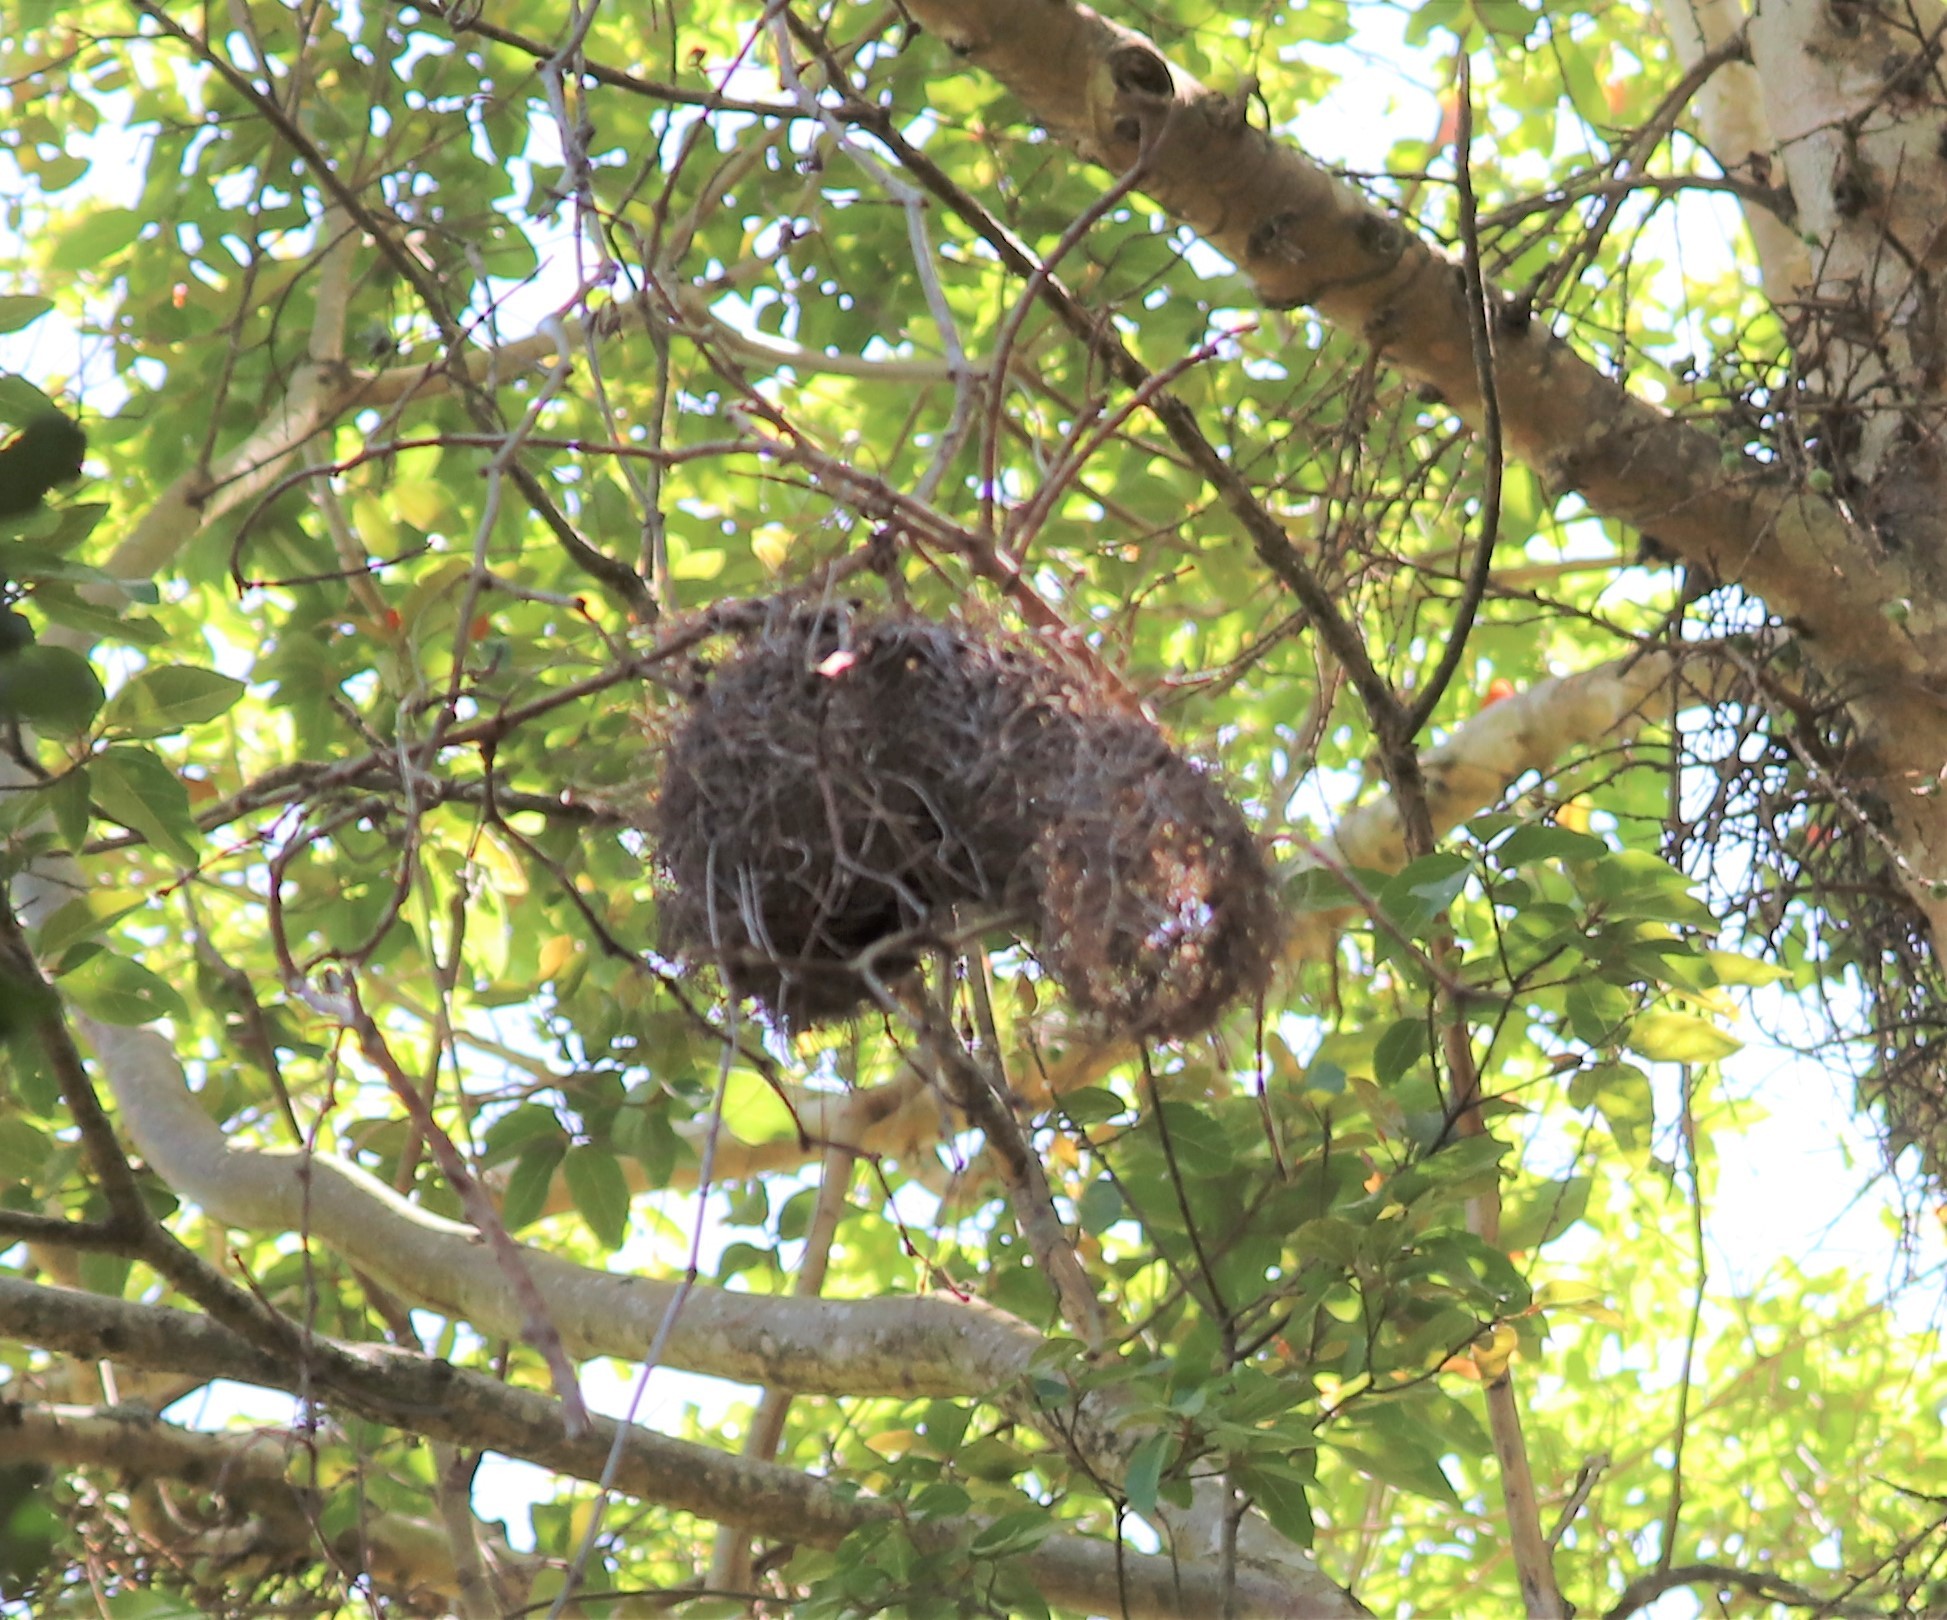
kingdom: Animalia
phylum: Chordata
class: Aves
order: Passeriformes
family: Ploceidae
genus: Ploceus
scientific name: Ploceus bicolor
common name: Dark-backed weaver
